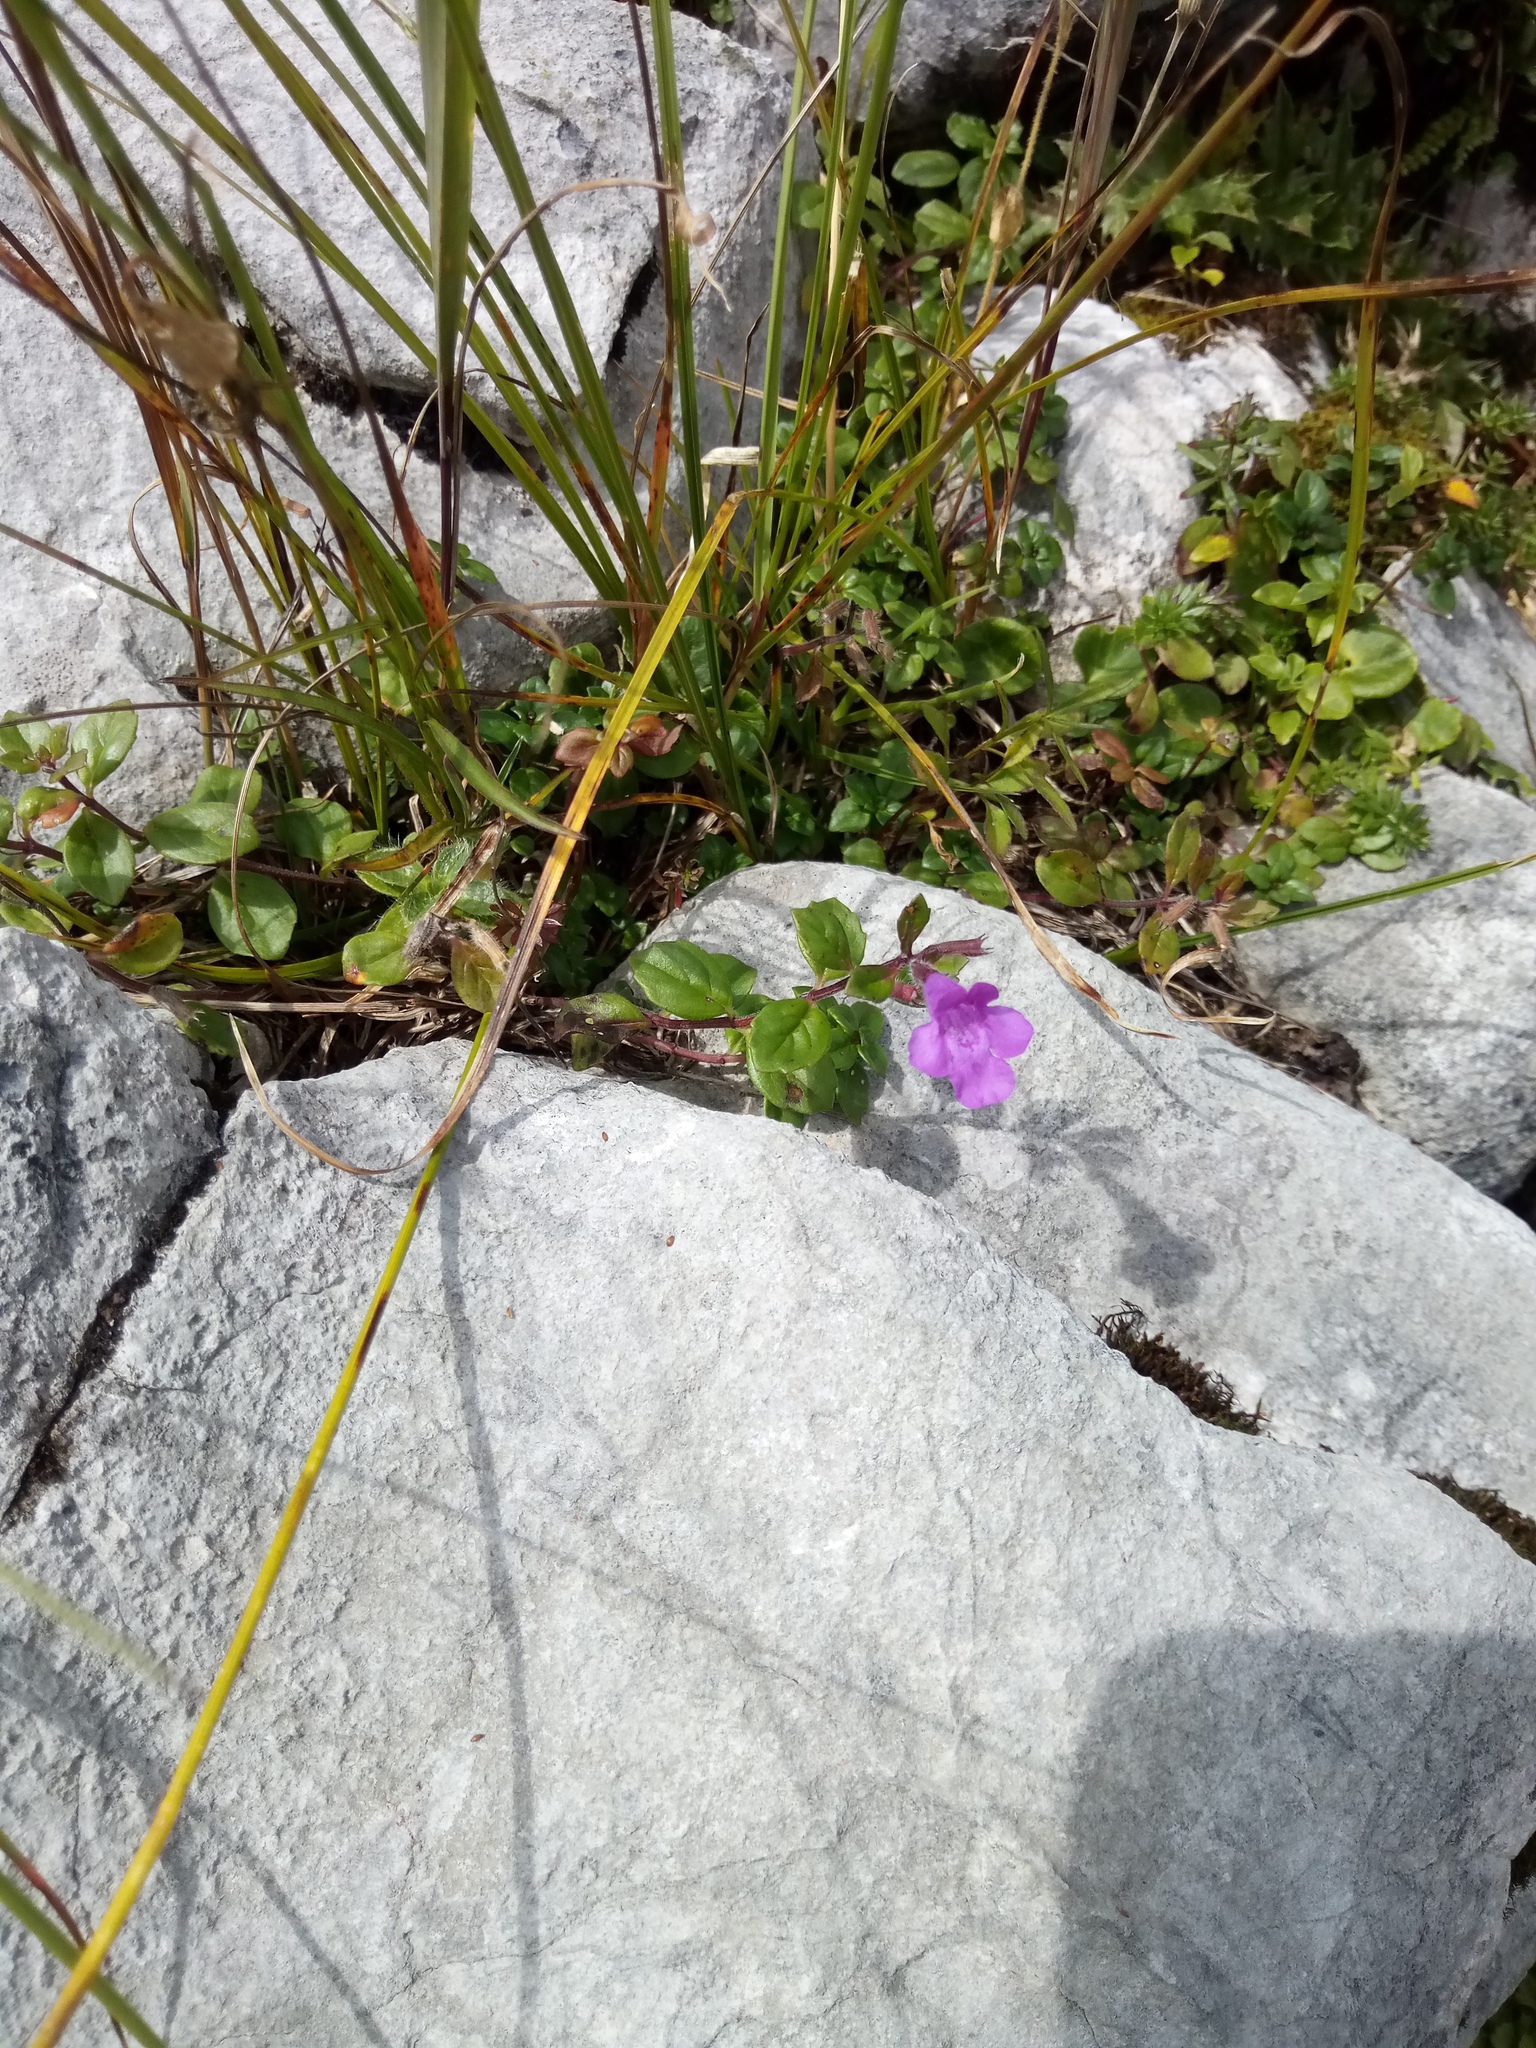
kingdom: Plantae
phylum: Tracheophyta
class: Magnoliopsida
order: Lamiales
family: Lamiaceae
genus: Clinopodium
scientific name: Clinopodium alpinum
